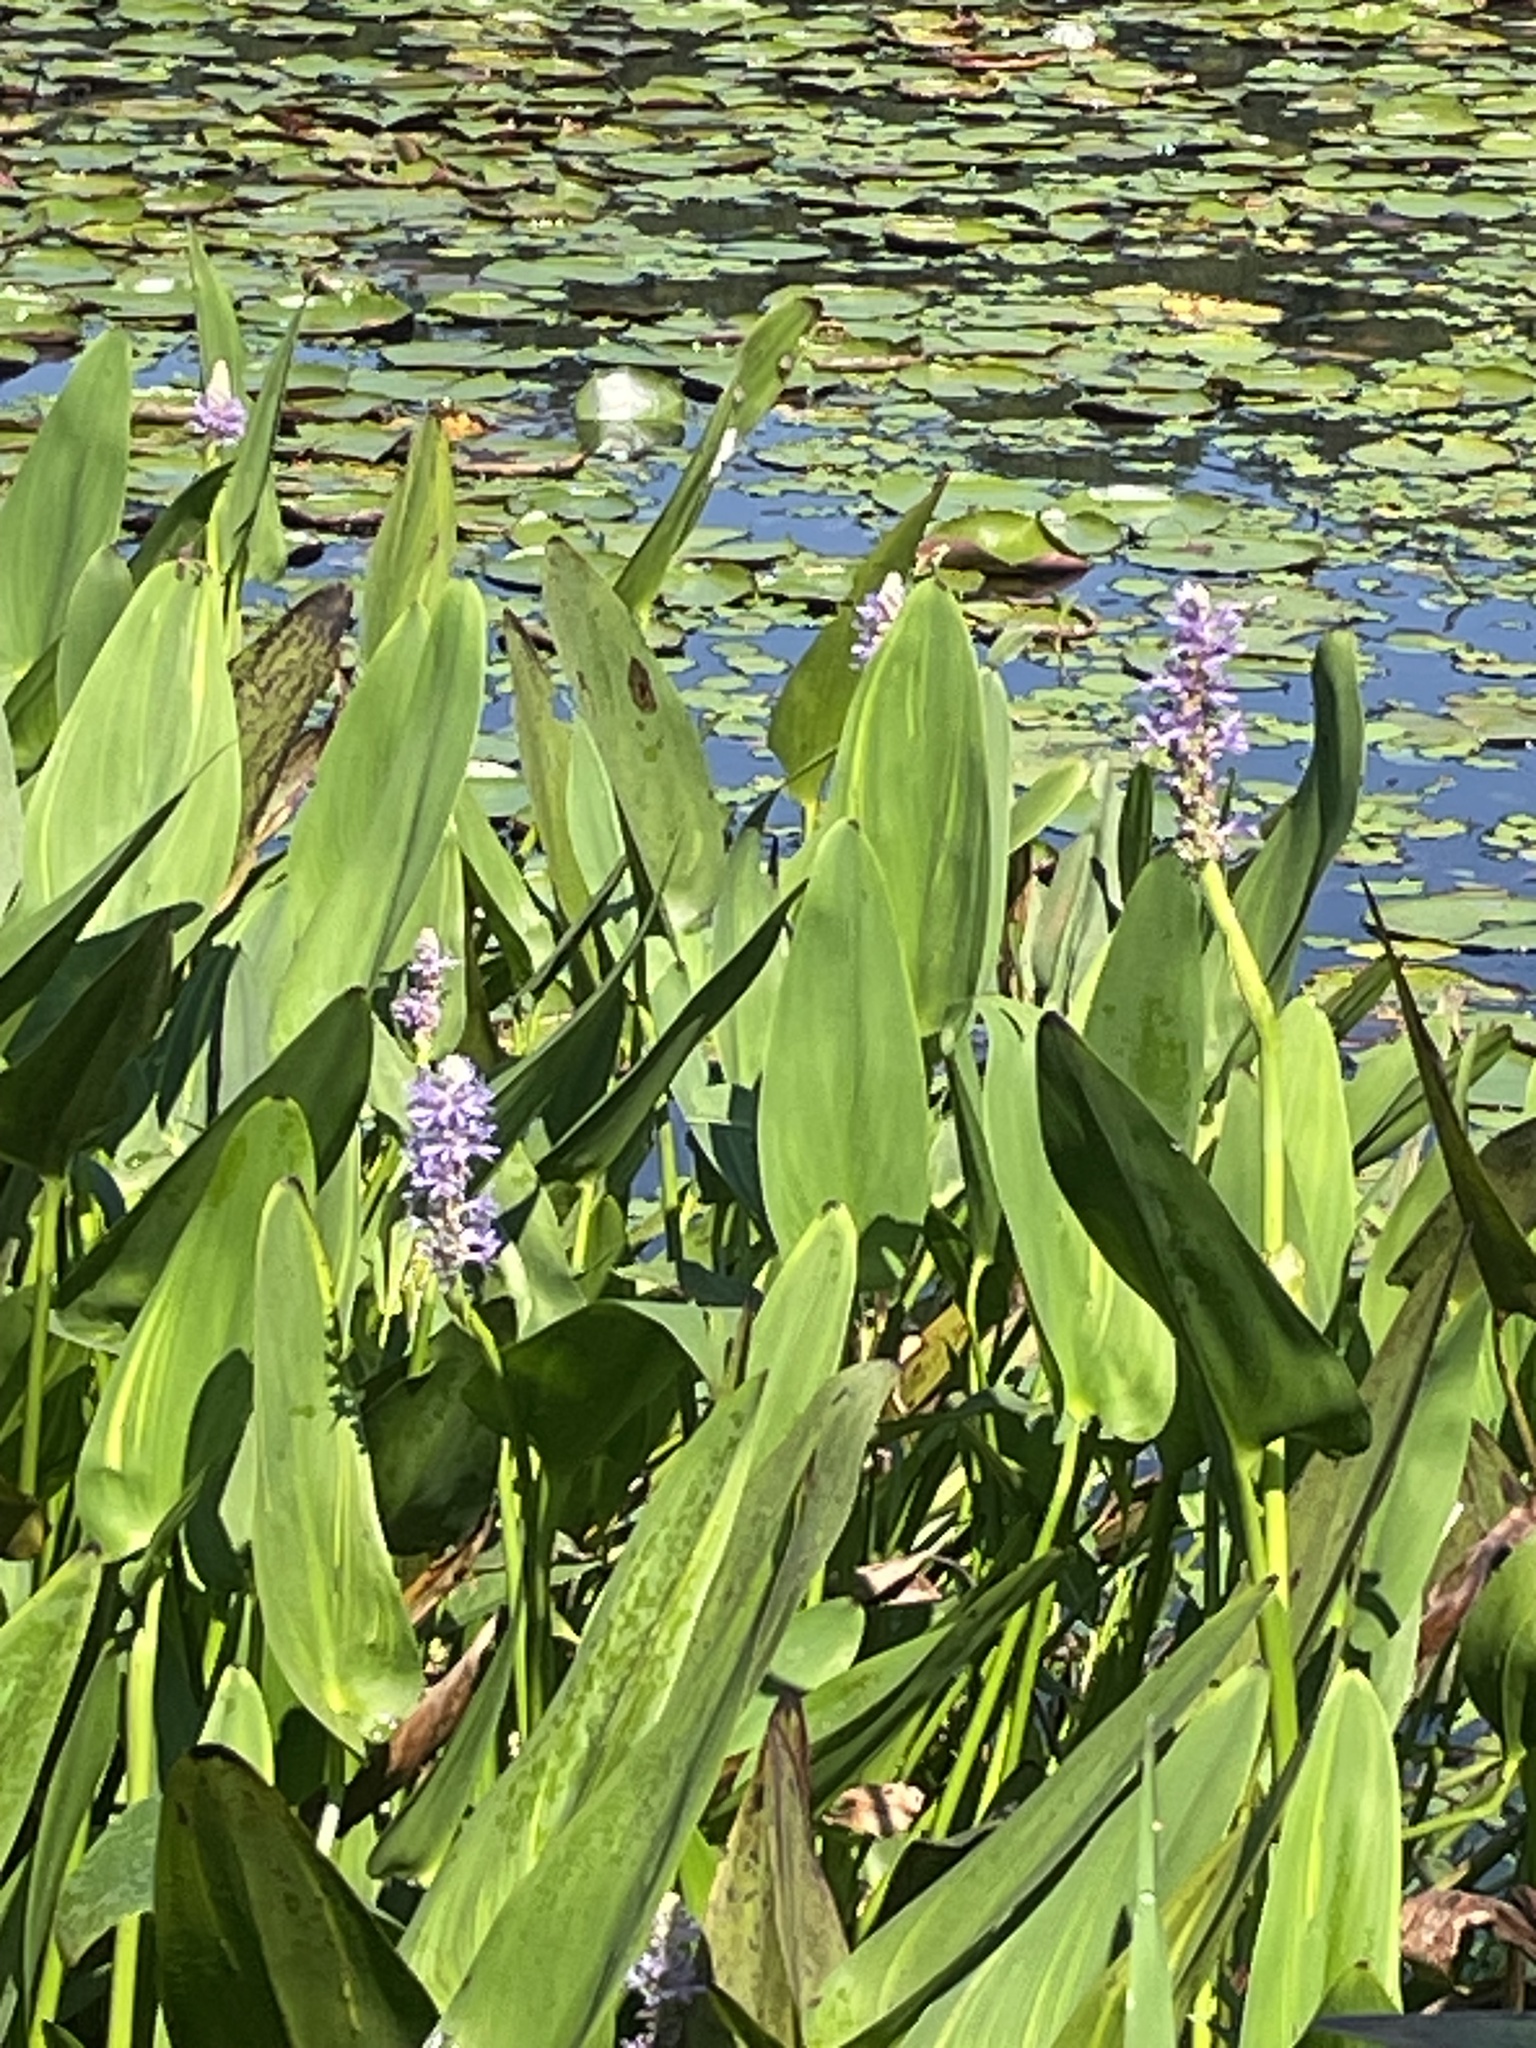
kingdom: Plantae
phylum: Tracheophyta
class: Liliopsida
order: Commelinales
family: Pontederiaceae
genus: Pontederia
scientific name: Pontederia cordata
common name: Pickerelweed
